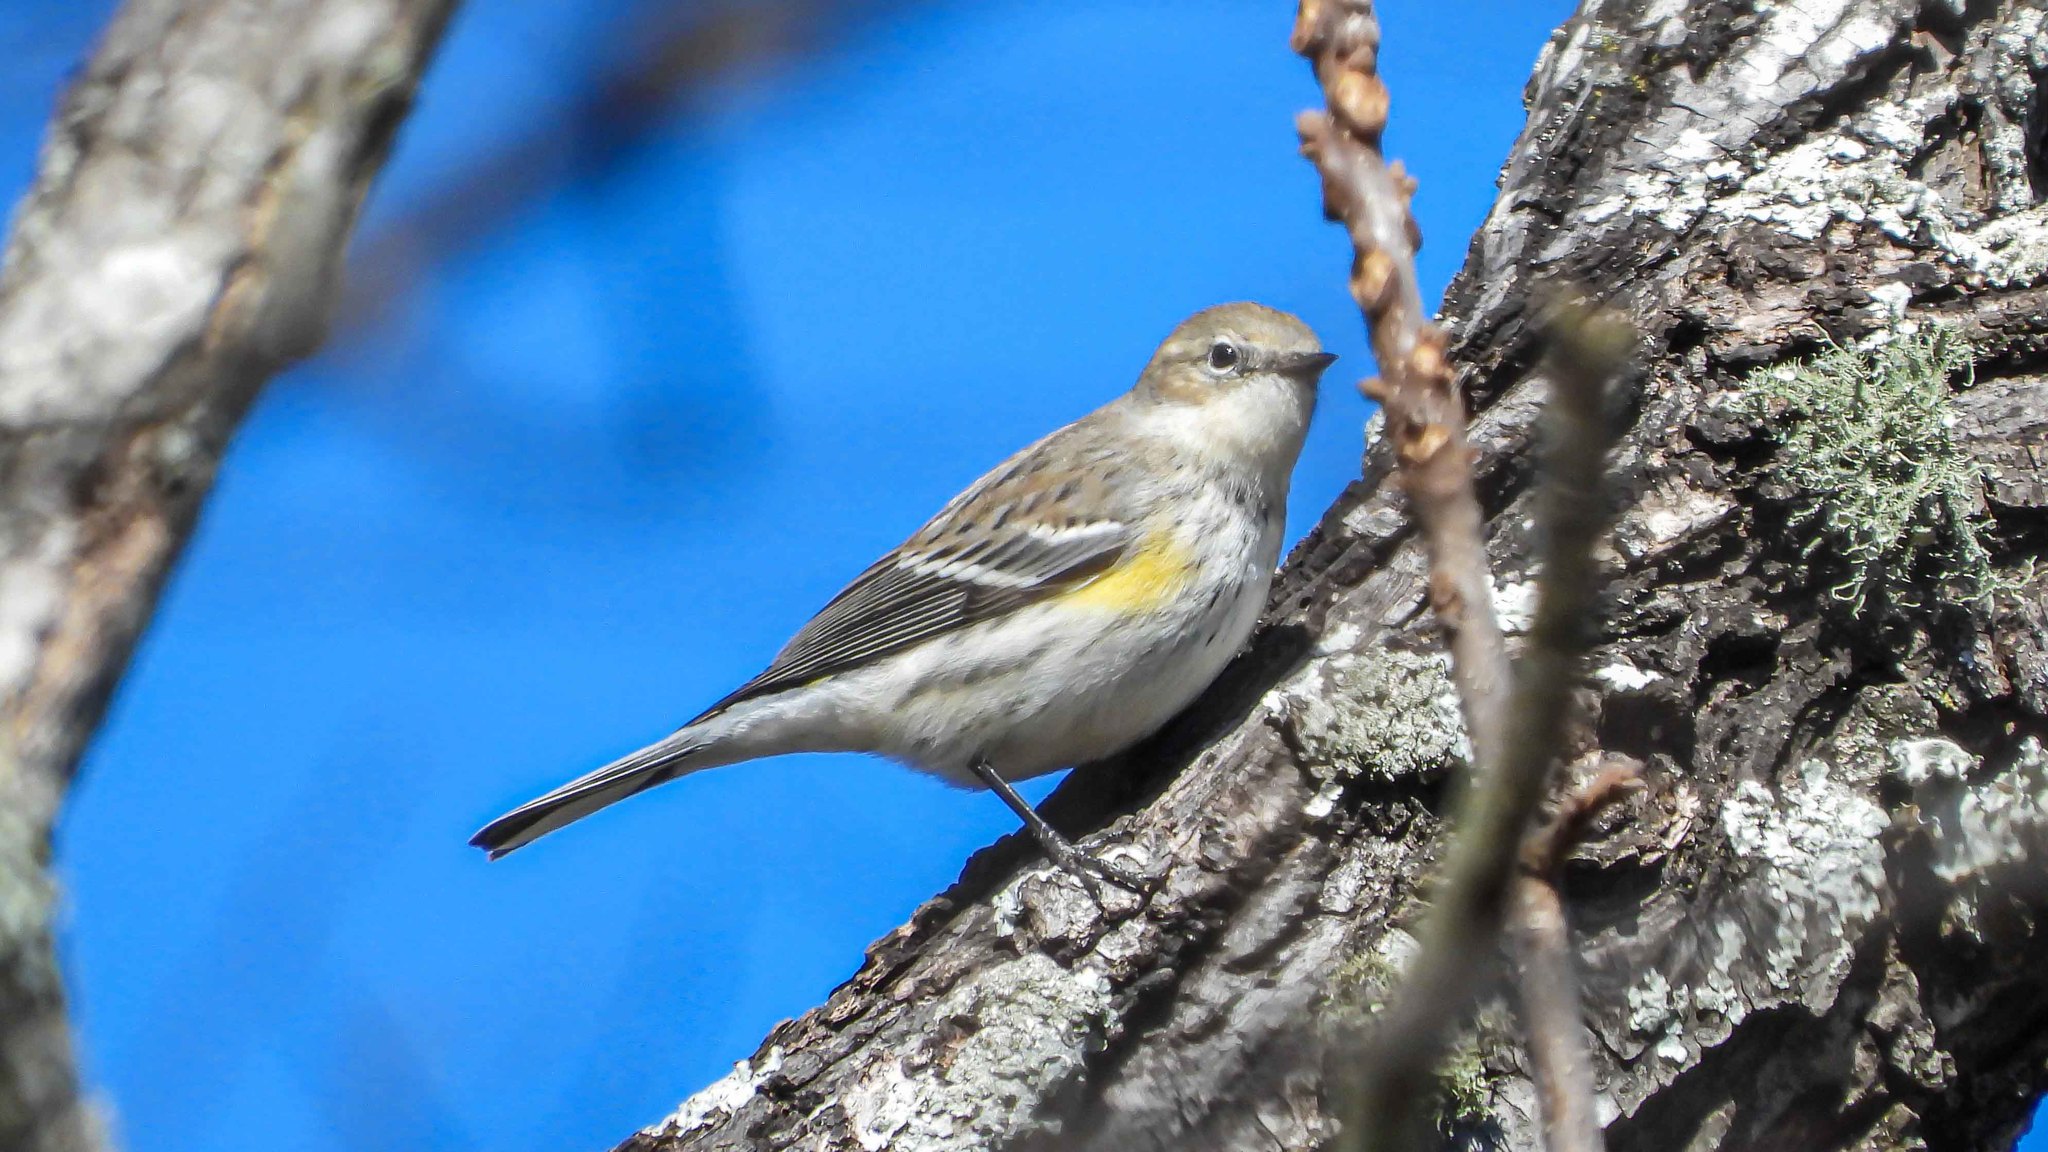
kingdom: Animalia
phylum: Chordata
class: Aves
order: Passeriformes
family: Parulidae
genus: Setophaga
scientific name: Setophaga coronata
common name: Myrtle warbler
